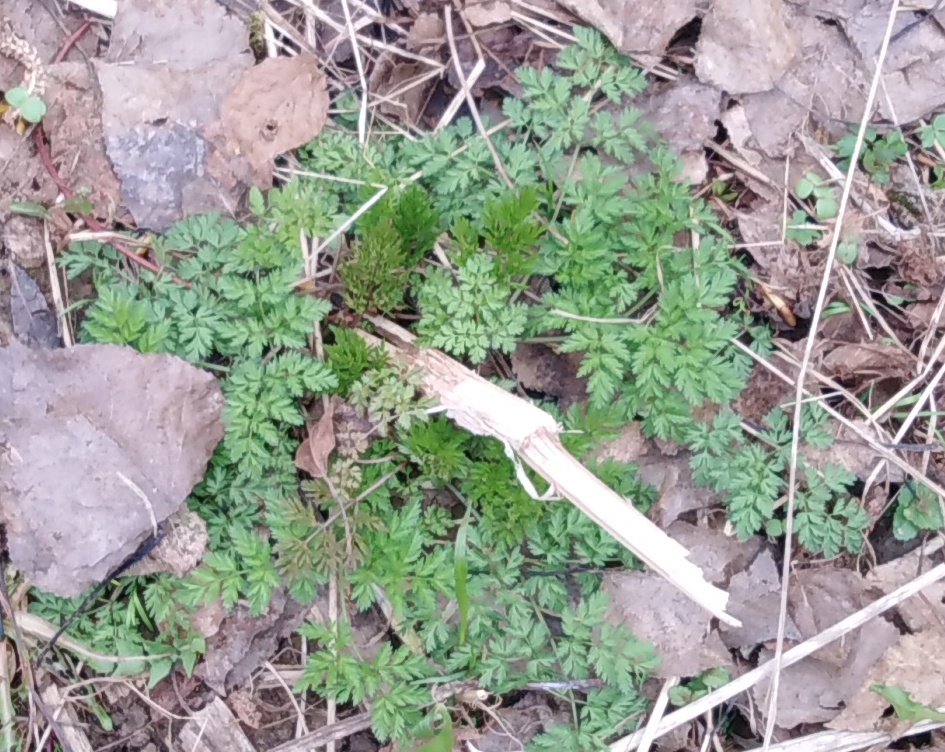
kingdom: Plantae
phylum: Tracheophyta
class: Magnoliopsida
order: Apiales
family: Apiaceae
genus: Anthriscus
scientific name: Anthriscus sylvestris
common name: Cow parsley
